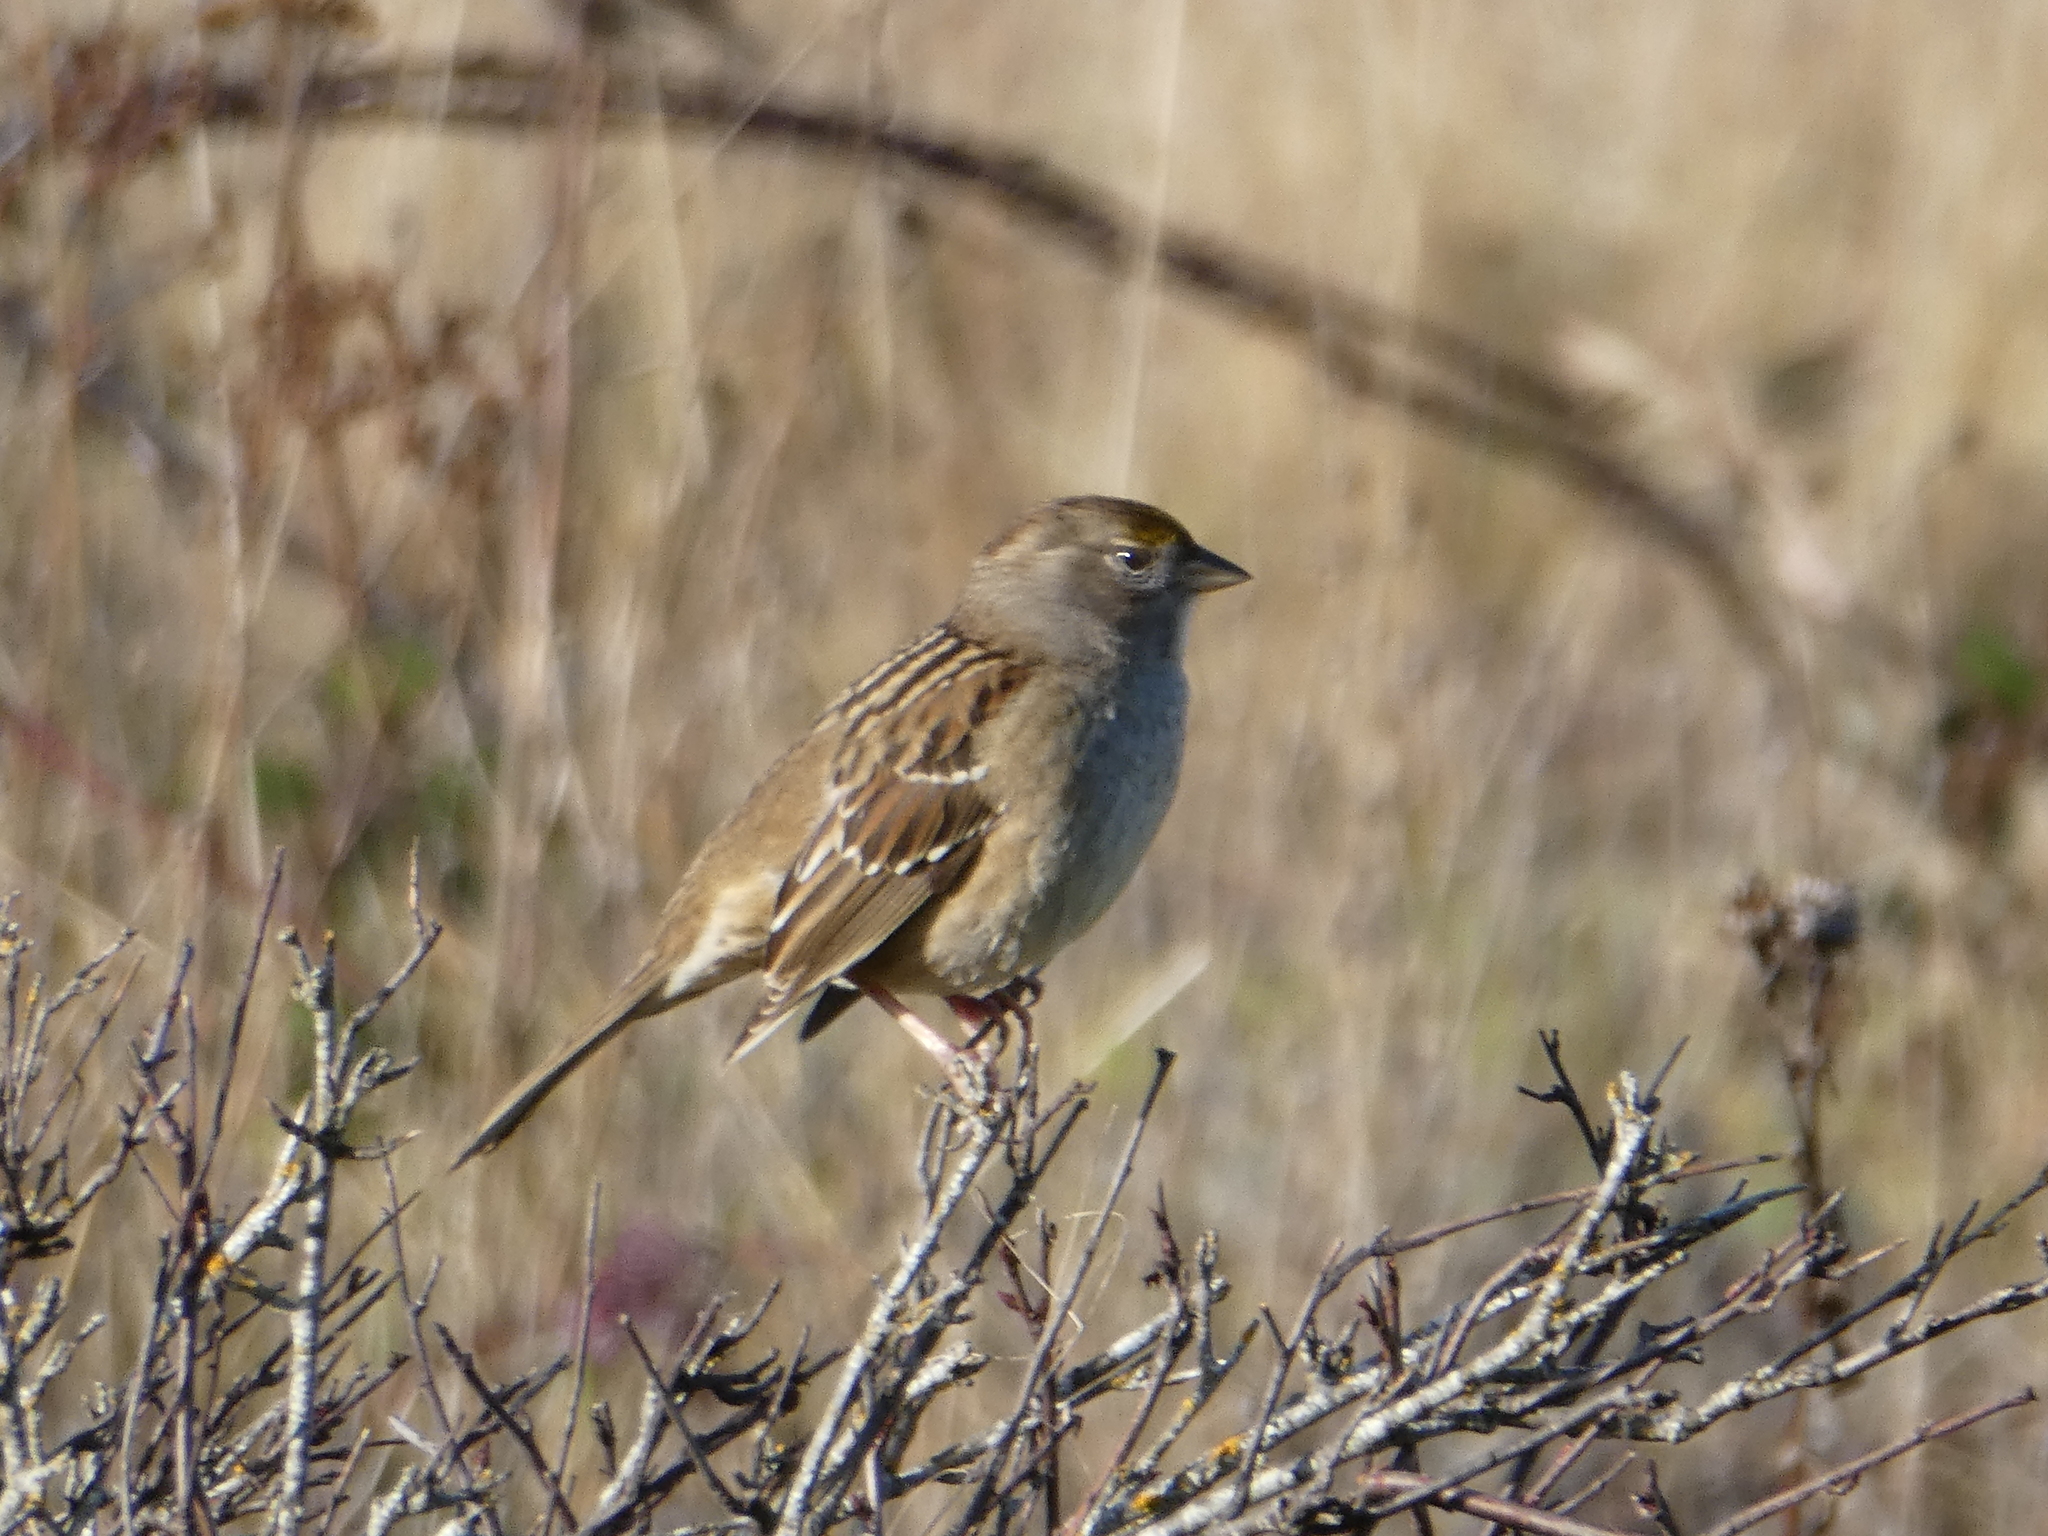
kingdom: Animalia
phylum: Chordata
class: Aves
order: Passeriformes
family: Passerellidae
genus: Zonotrichia
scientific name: Zonotrichia atricapilla
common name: Golden-crowned sparrow
